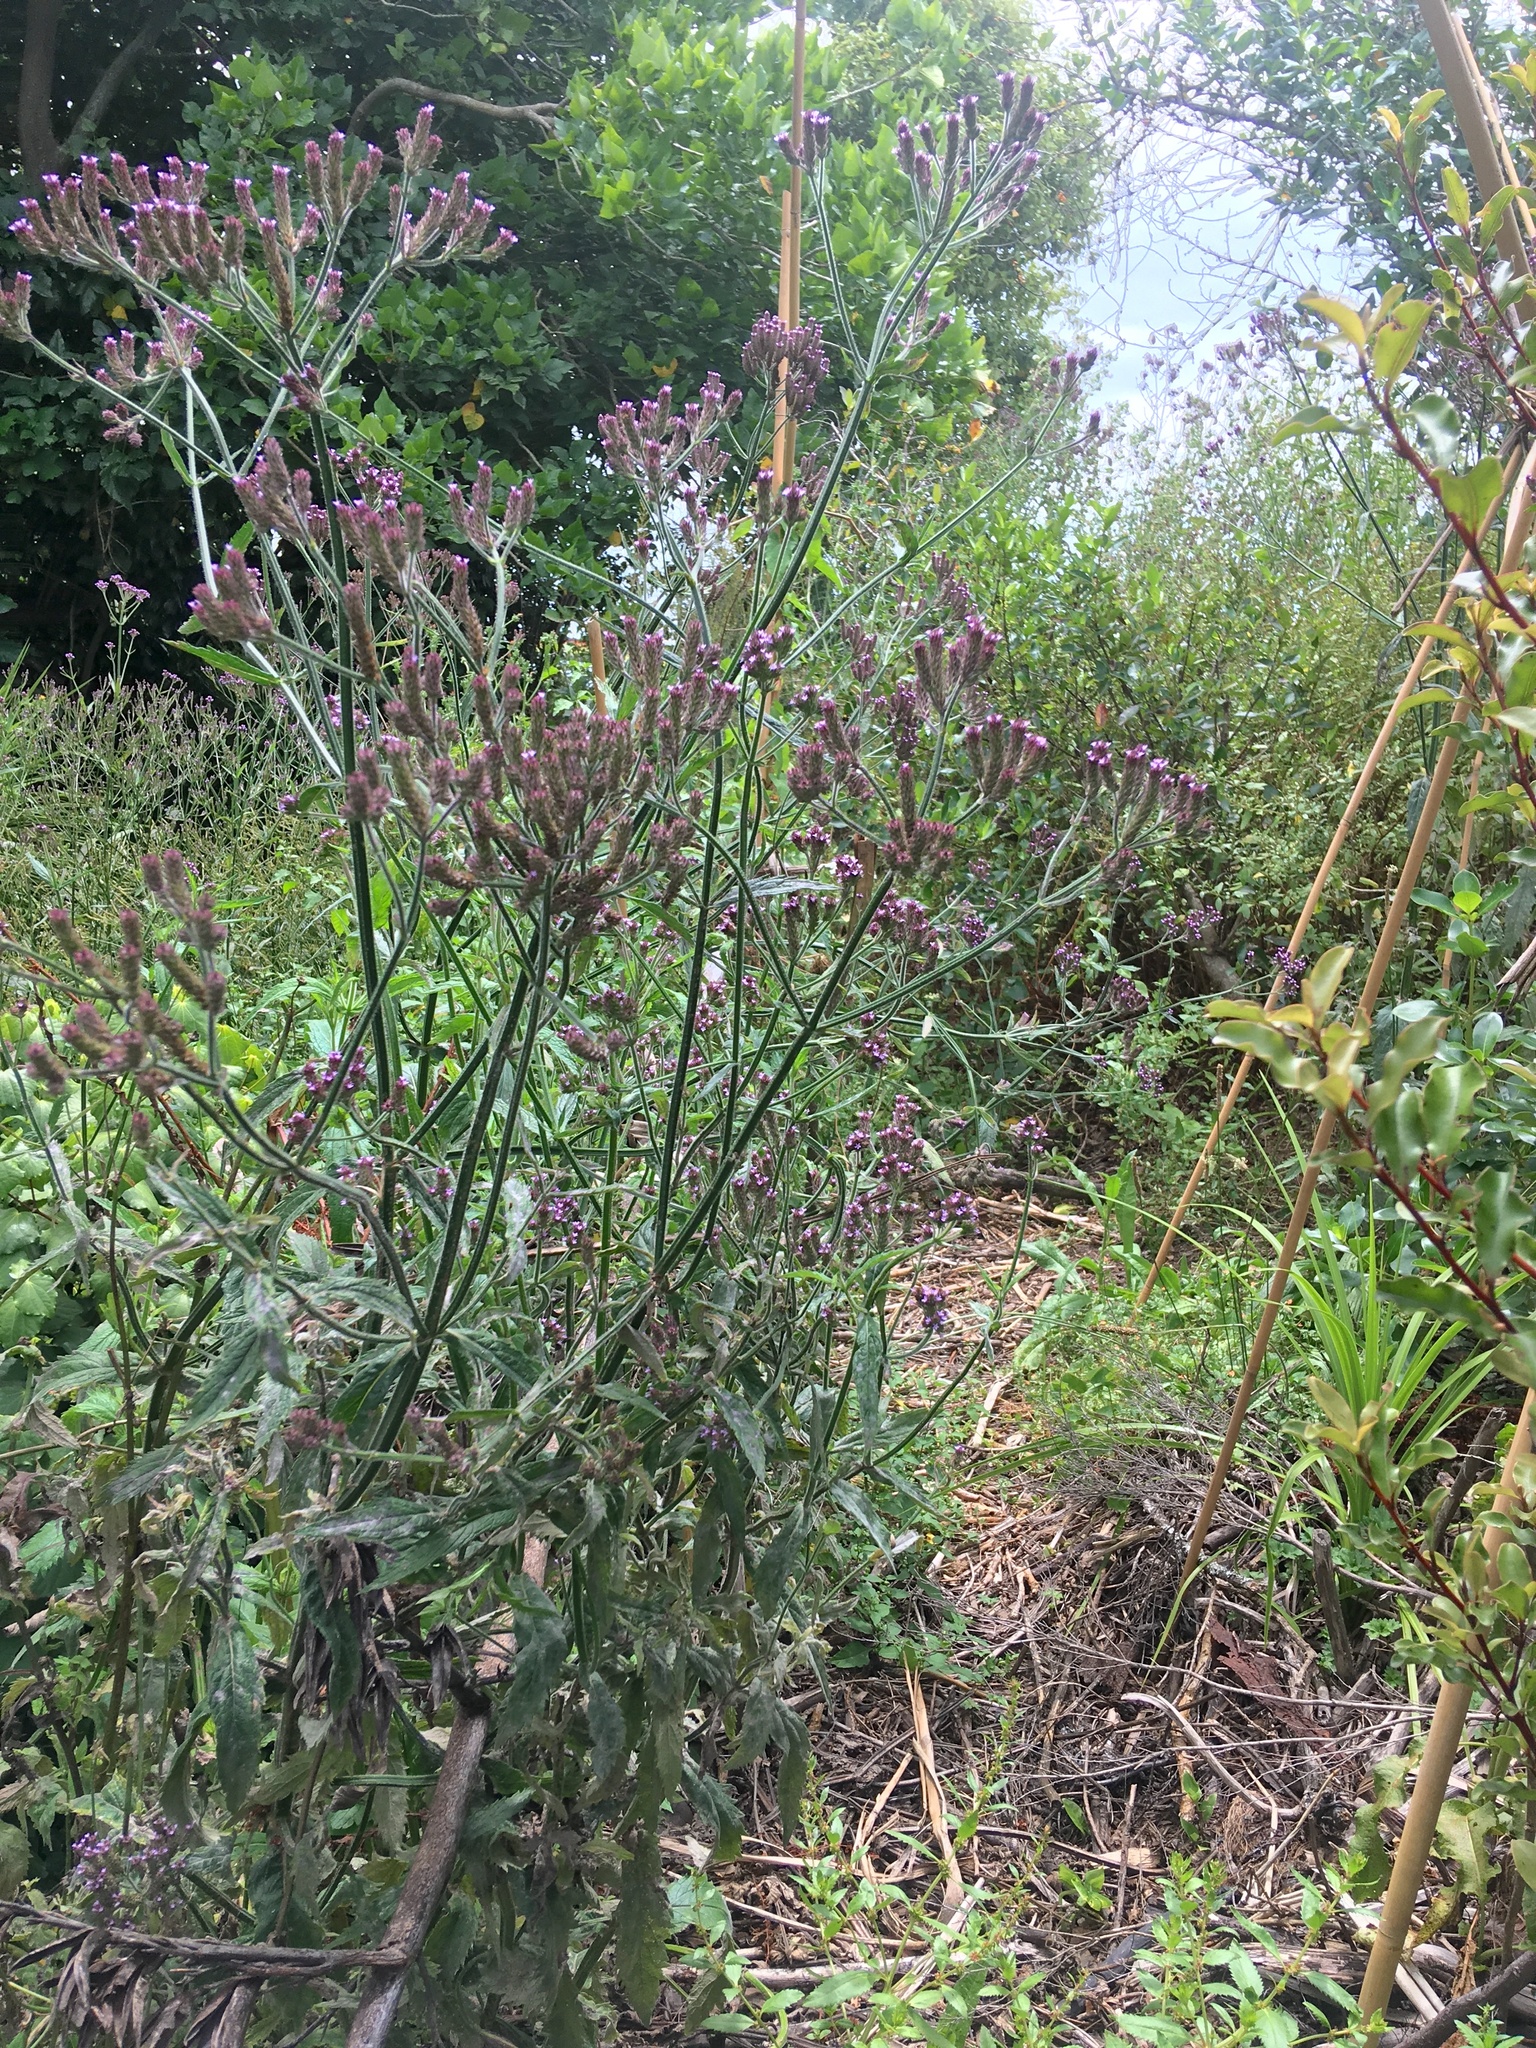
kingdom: Plantae
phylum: Tracheophyta
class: Magnoliopsida
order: Lamiales
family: Verbenaceae
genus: Verbena
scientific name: Verbena incompta
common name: Purpletop vervain
